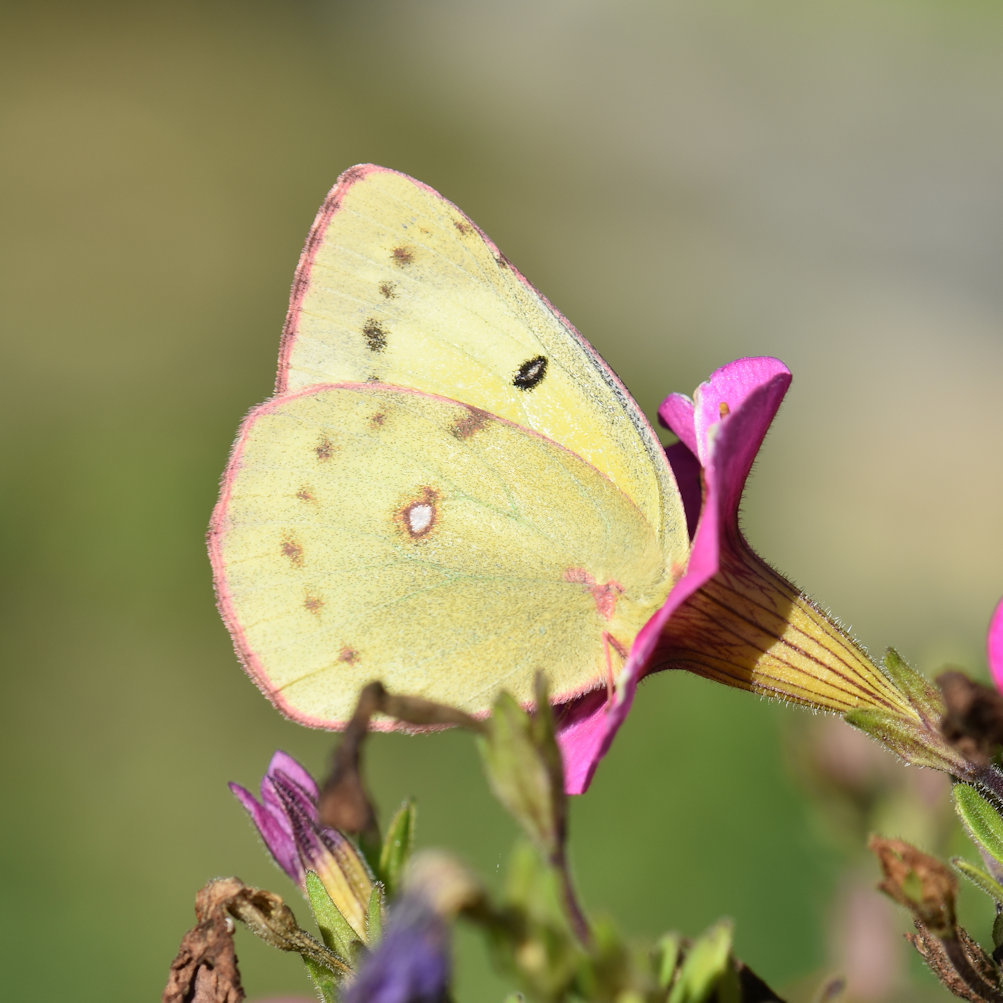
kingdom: Animalia
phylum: Arthropoda
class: Insecta
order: Lepidoptera
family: Pieridae
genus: Colias
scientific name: Colias philodice
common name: Clouded sulphur
